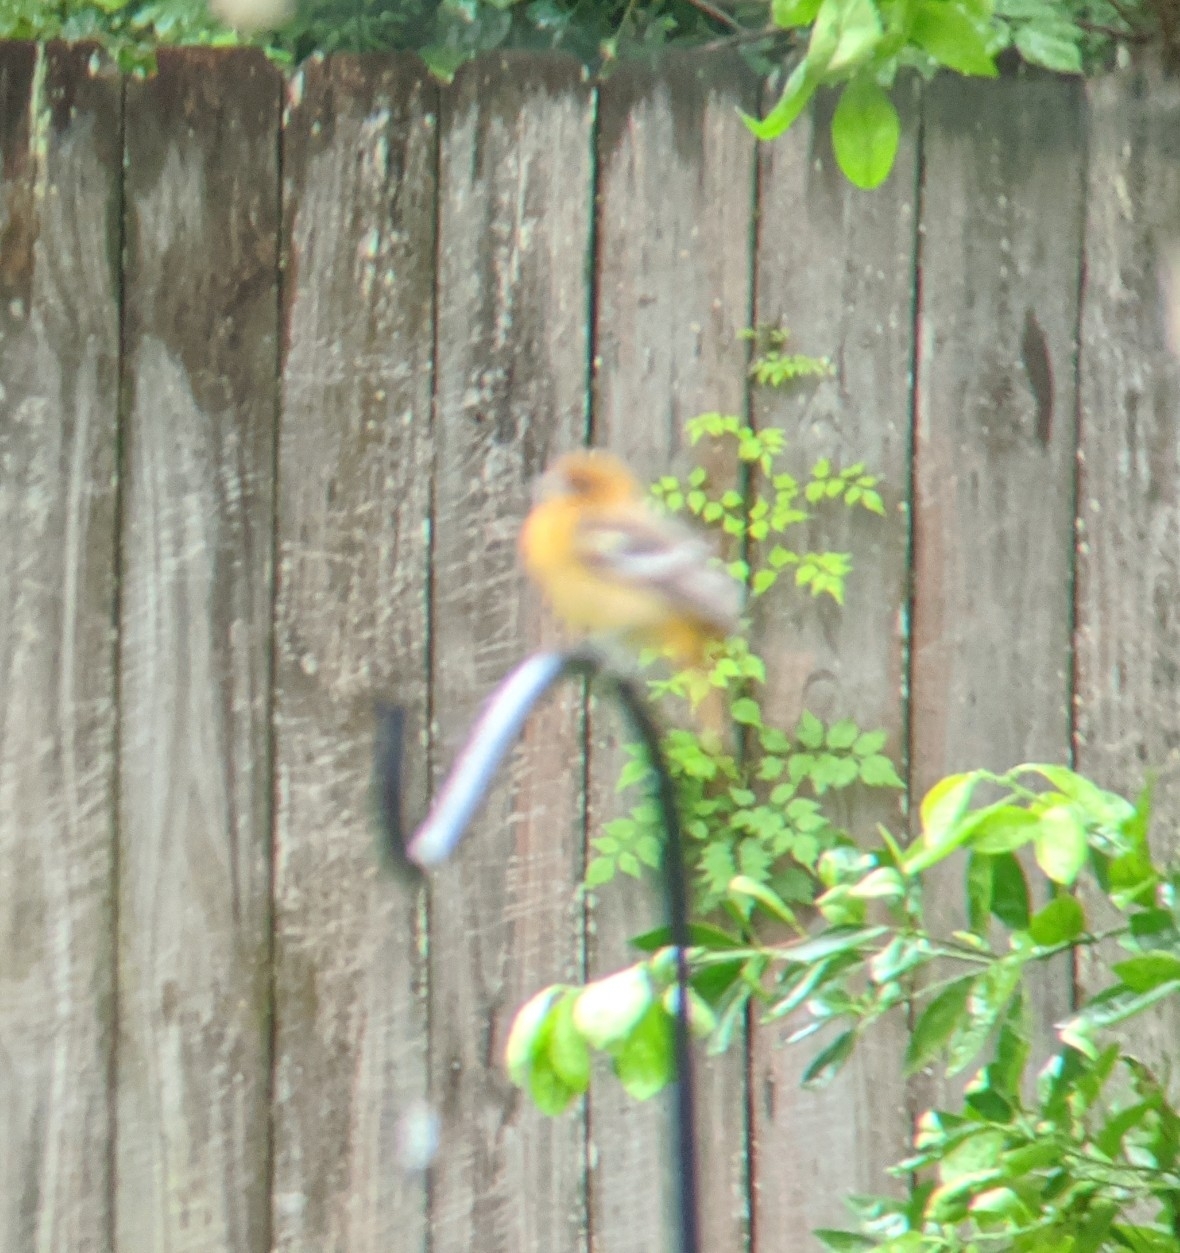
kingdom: Animalia
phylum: Chordata
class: Aves
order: Passeriformes
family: Icteridae
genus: Icterus
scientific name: Icterus galbula
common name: Baltimore oriole
